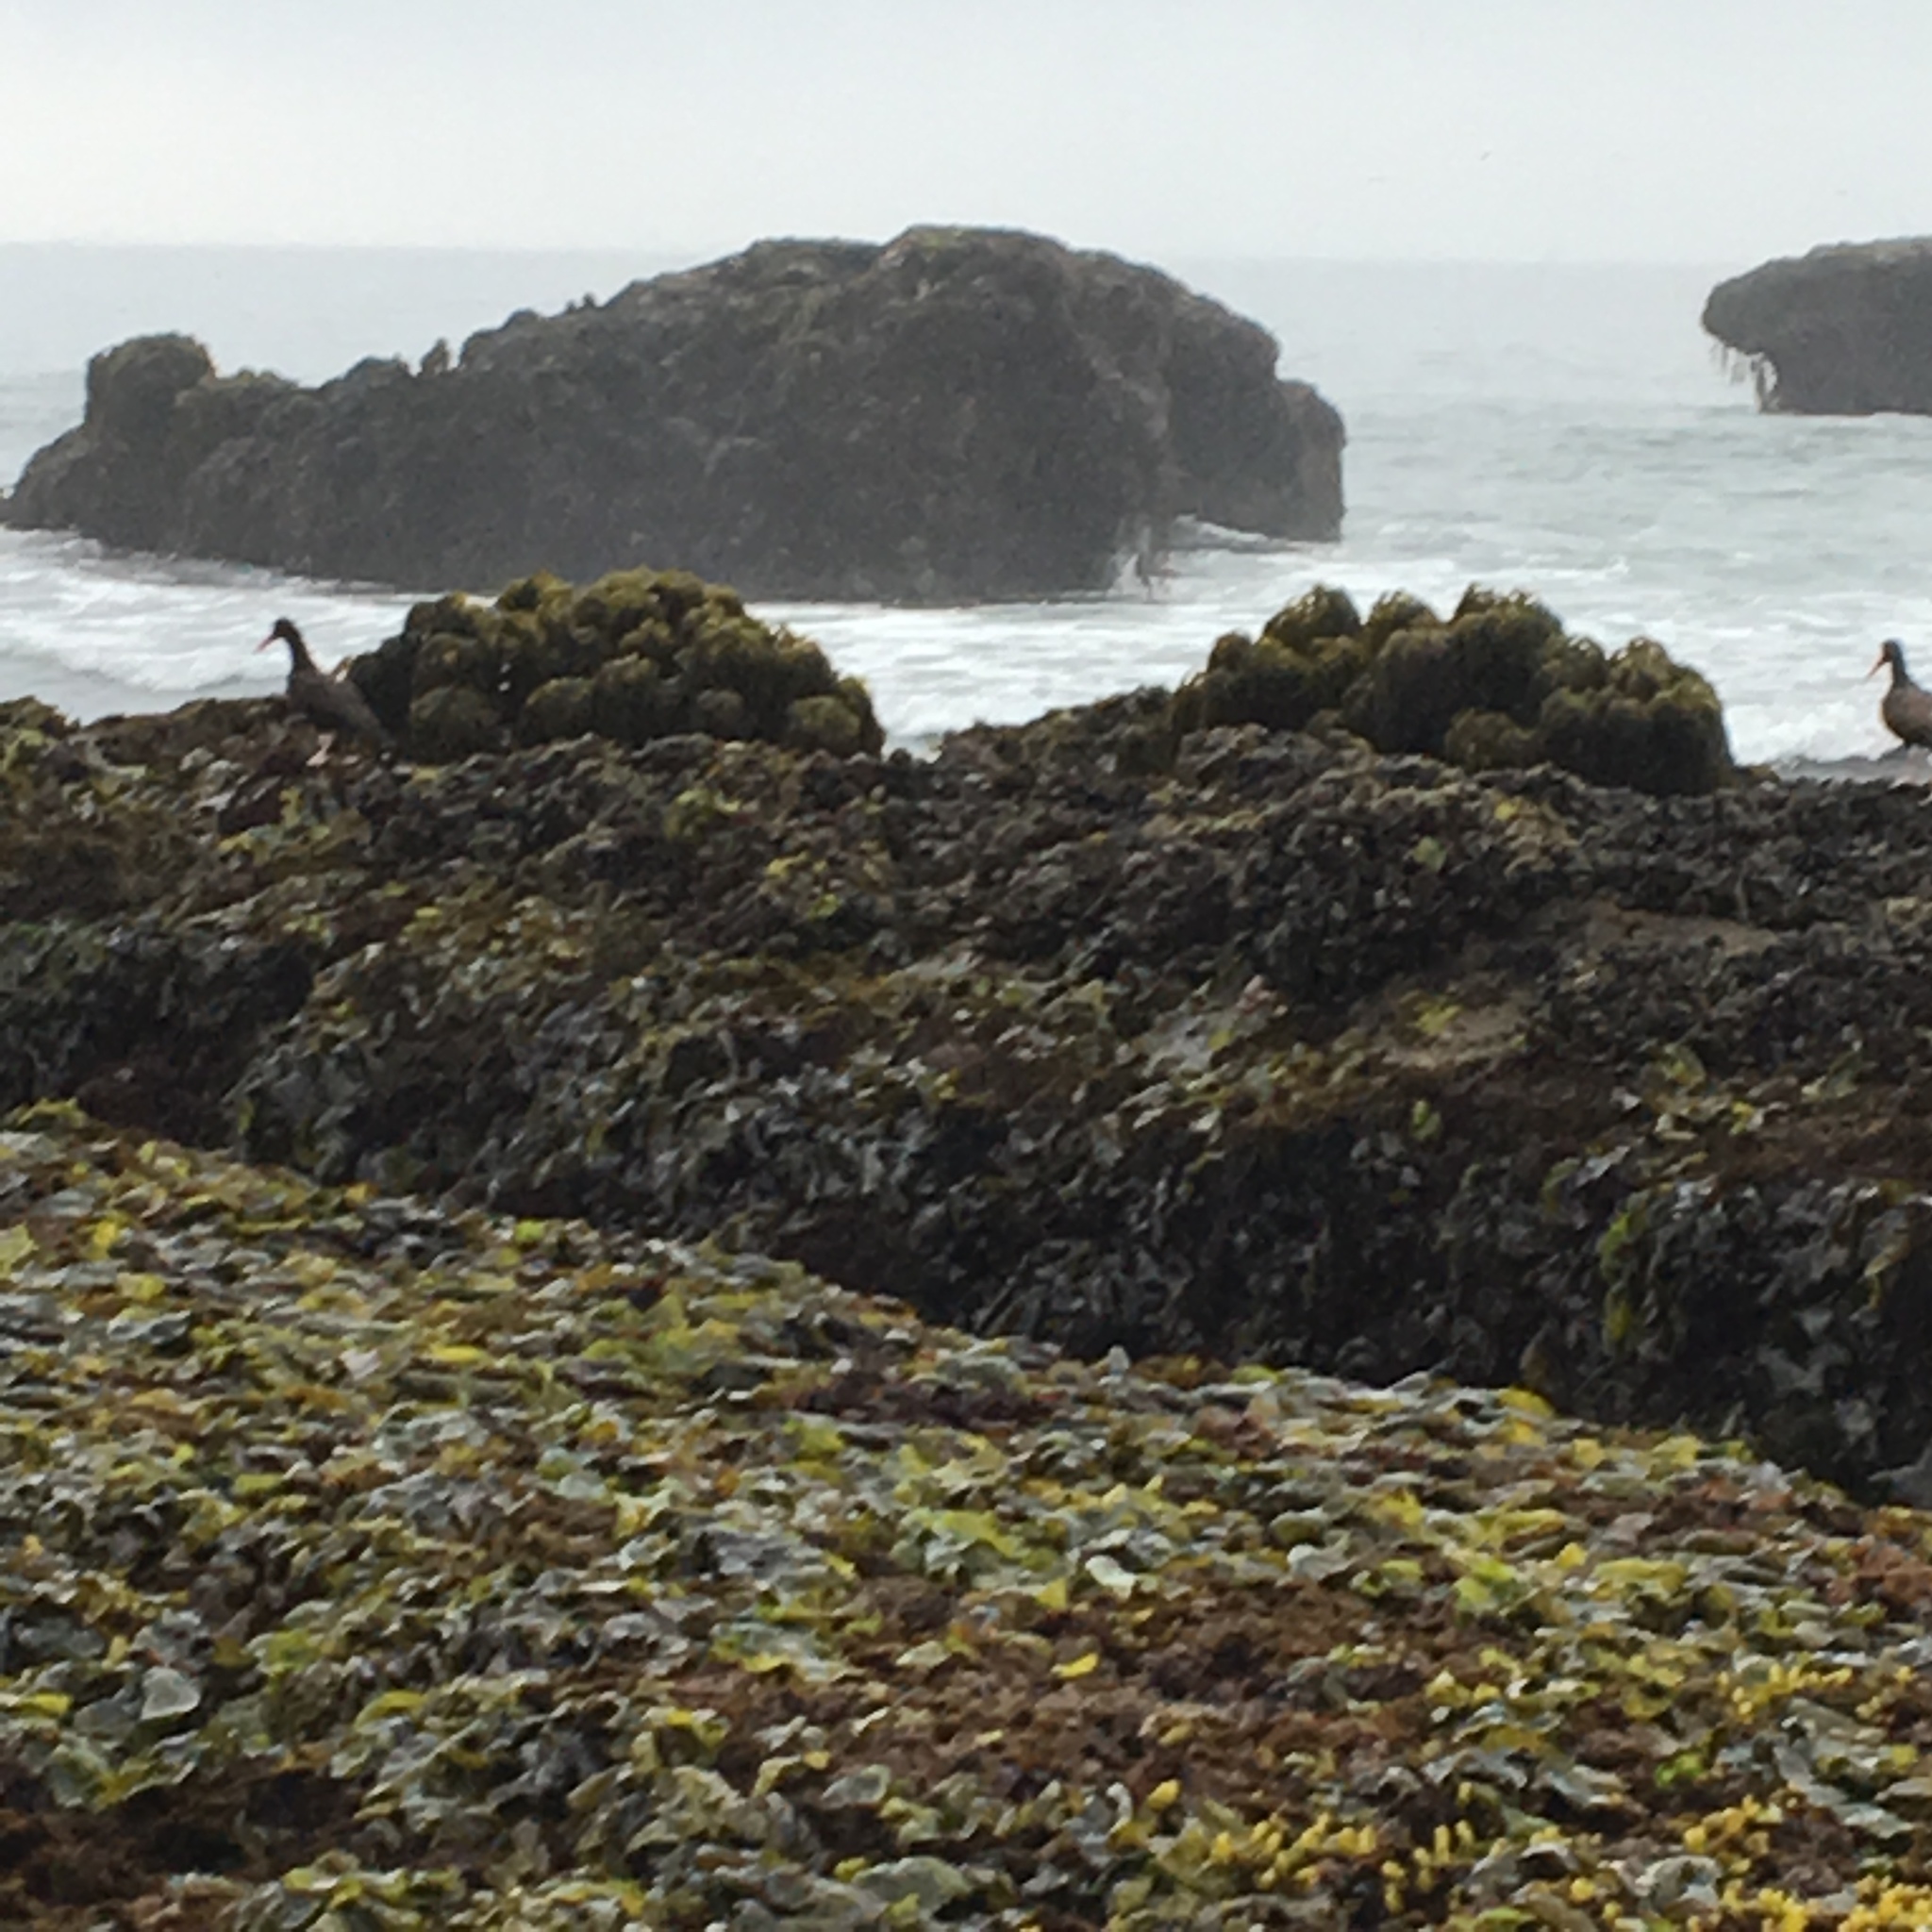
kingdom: Animalia
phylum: Chordata
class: Aves
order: Charadriiformes
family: Haematopodidae
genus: Haematopus
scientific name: Haematopus bachmani
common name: Black oystercatcher
